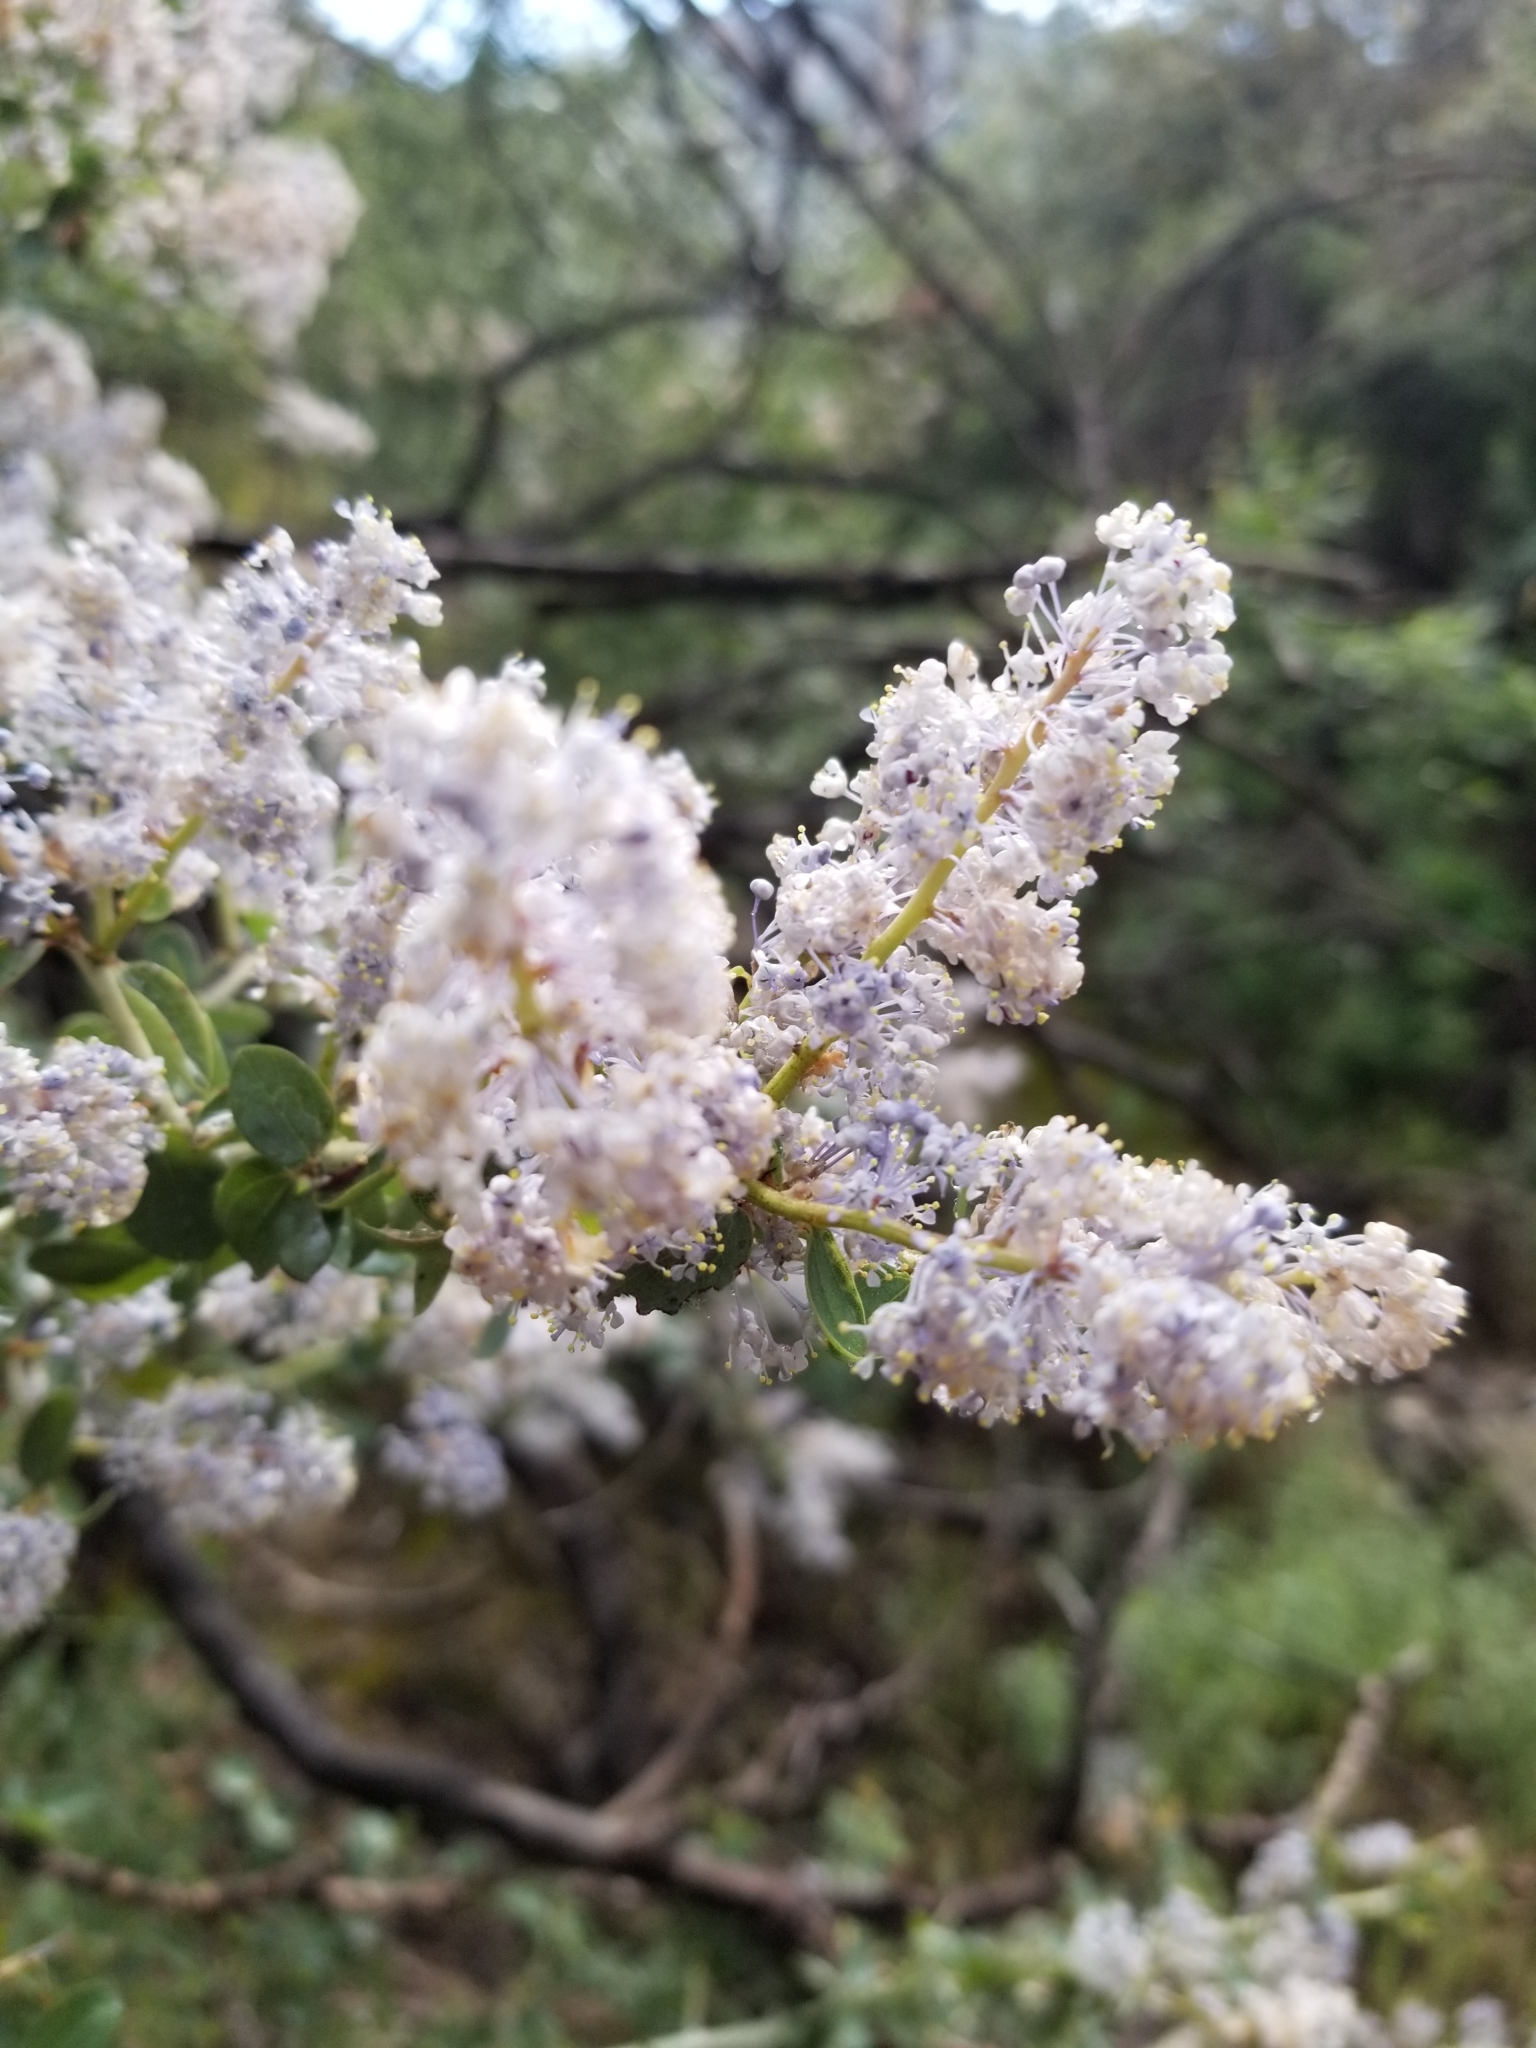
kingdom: Plantae
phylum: Tracheophyta
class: Magnoliopsida
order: Rosales
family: Rhamnaceae
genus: Ceanothus
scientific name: Ceanothus leucodermis
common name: Chaparral whitethorn
